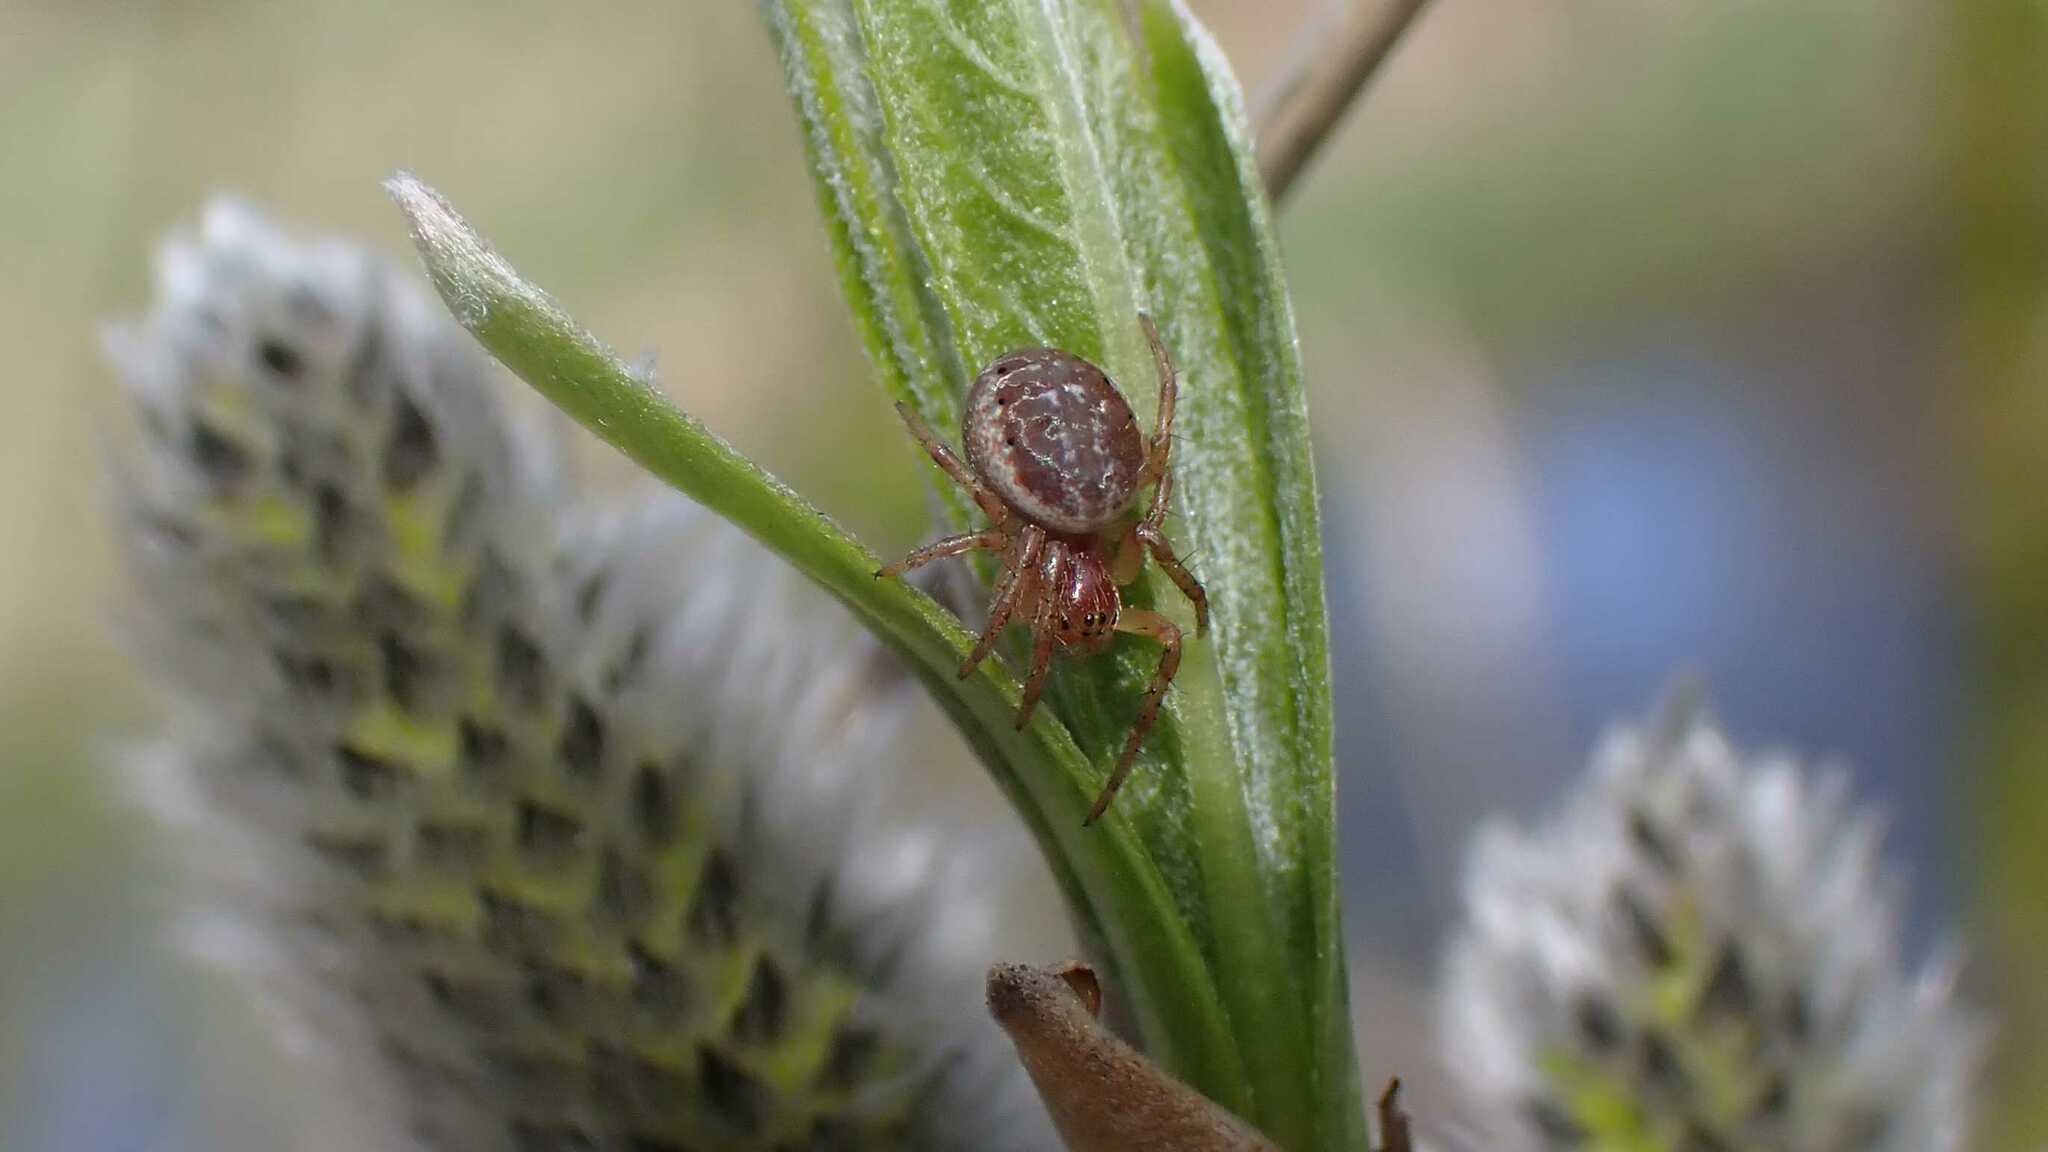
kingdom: Animalia
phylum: Arthropoda
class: Arachnida
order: Araneae
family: Araneidae
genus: Araniella
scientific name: Araniella
